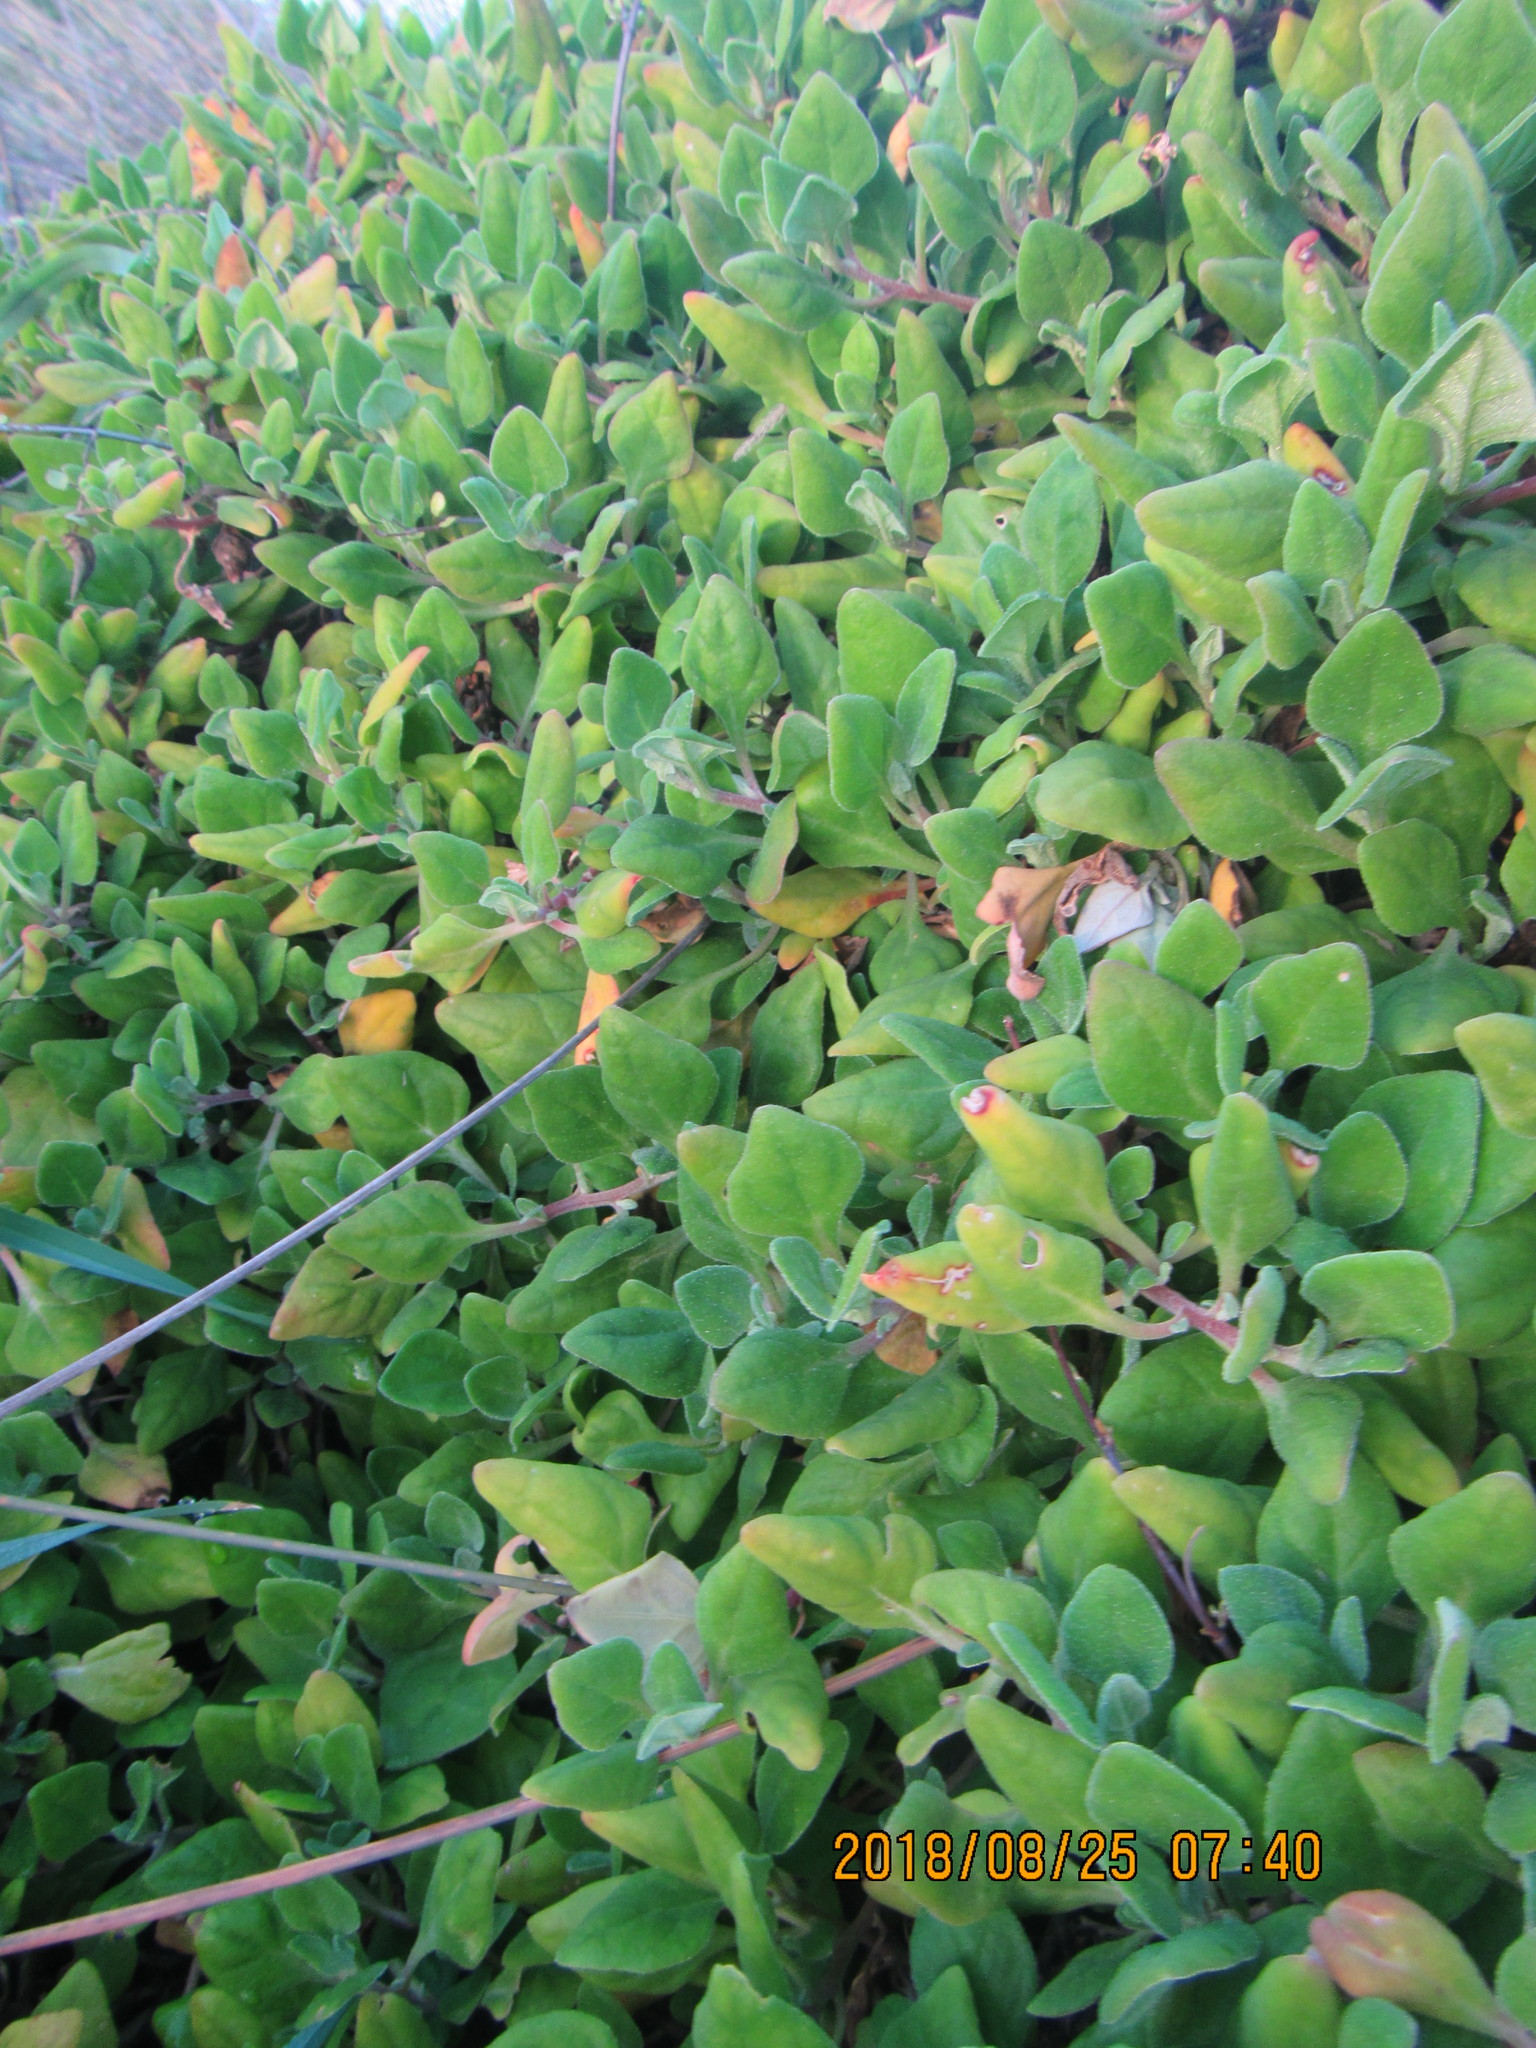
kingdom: Plantae
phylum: Tracheophyta
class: Magnoliopsida
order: Caryophyllales
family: Aizoaceae
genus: Tetragonia
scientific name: Tetragonia implexicoma
